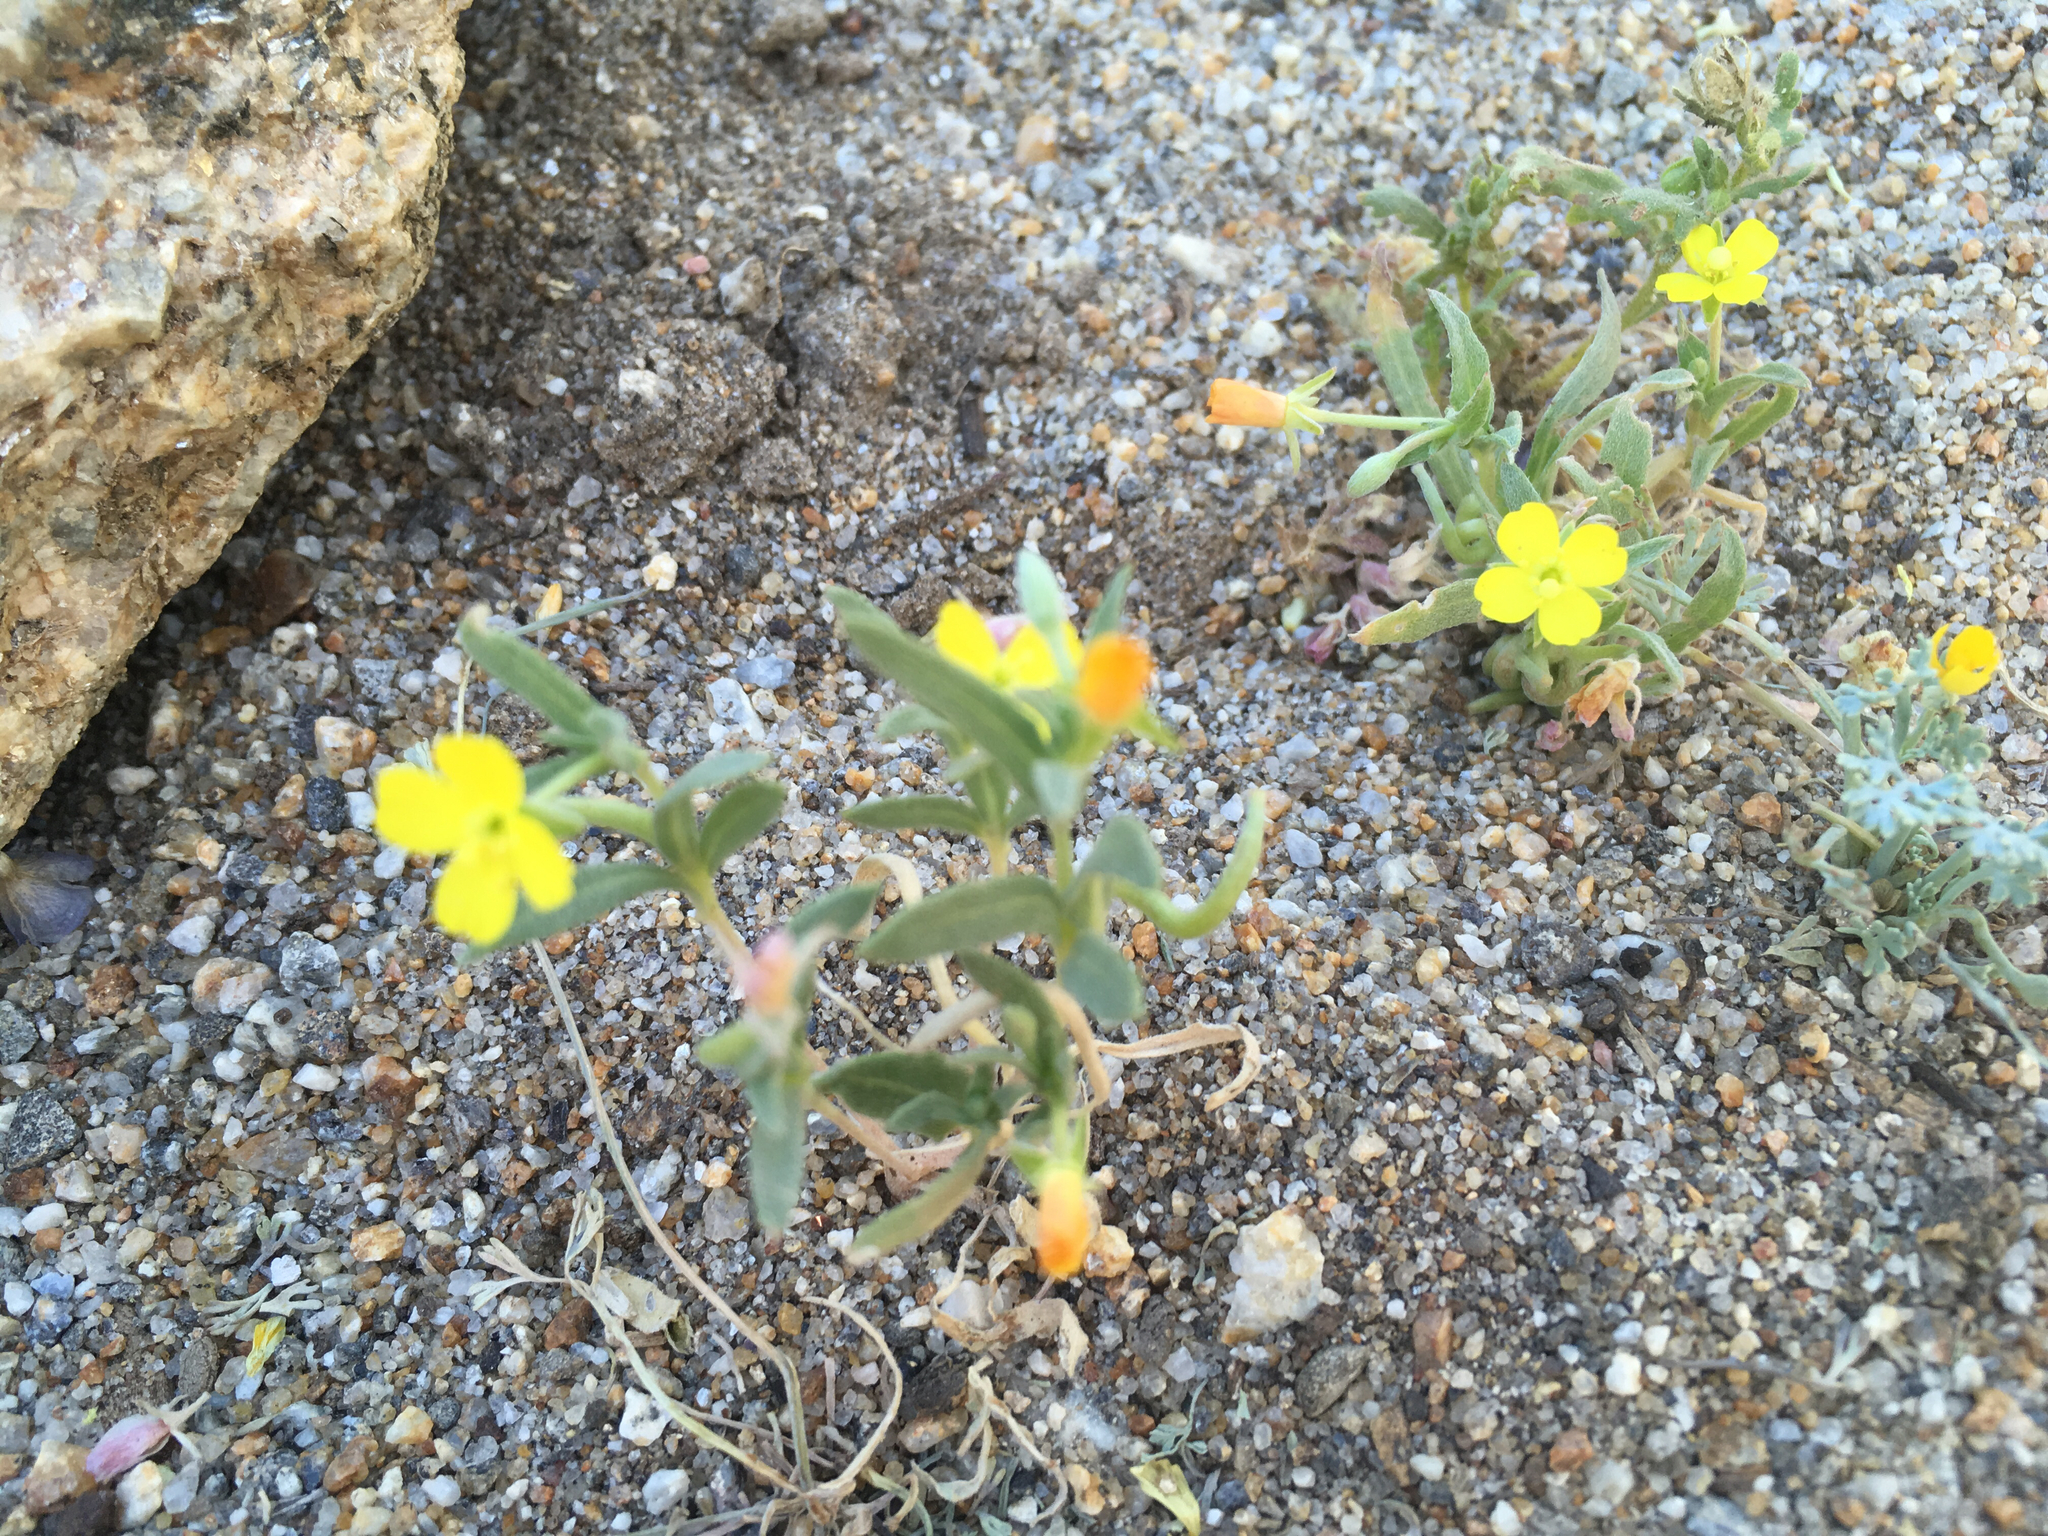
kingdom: Plantae
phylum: Tracheophyta
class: Magnoliopsida
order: Myrtales
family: Onagraceae
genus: Camissoniopsis
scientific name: Camissoniopsis pallida
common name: Paleyellow suncup
